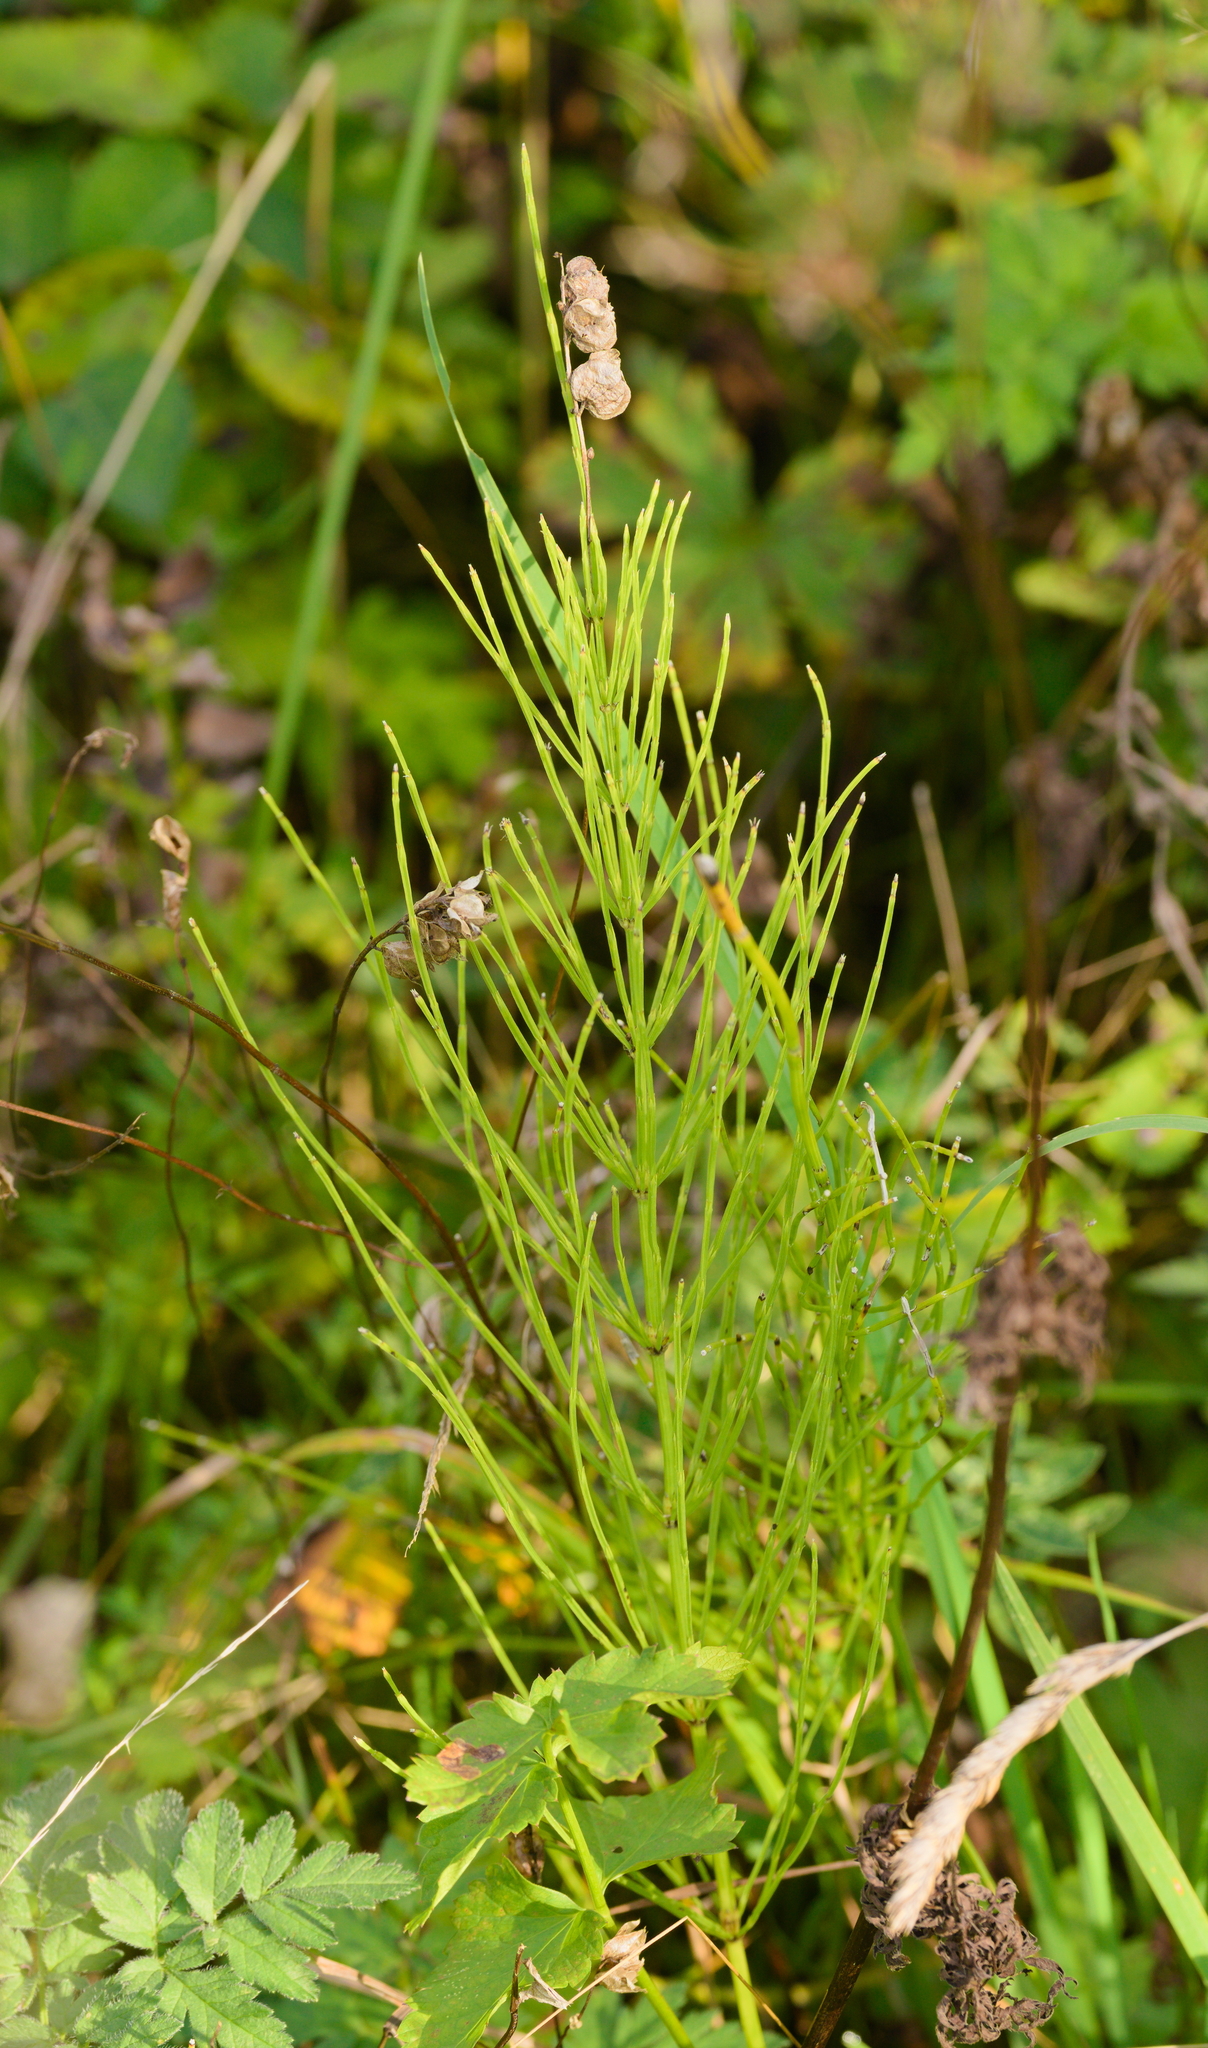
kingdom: Plantae
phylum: Tracheophyta
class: Polypodiopsida
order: Equisetales
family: Equisetaceae
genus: Equisetum
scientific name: Equisetum arvense
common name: Field horsetail
